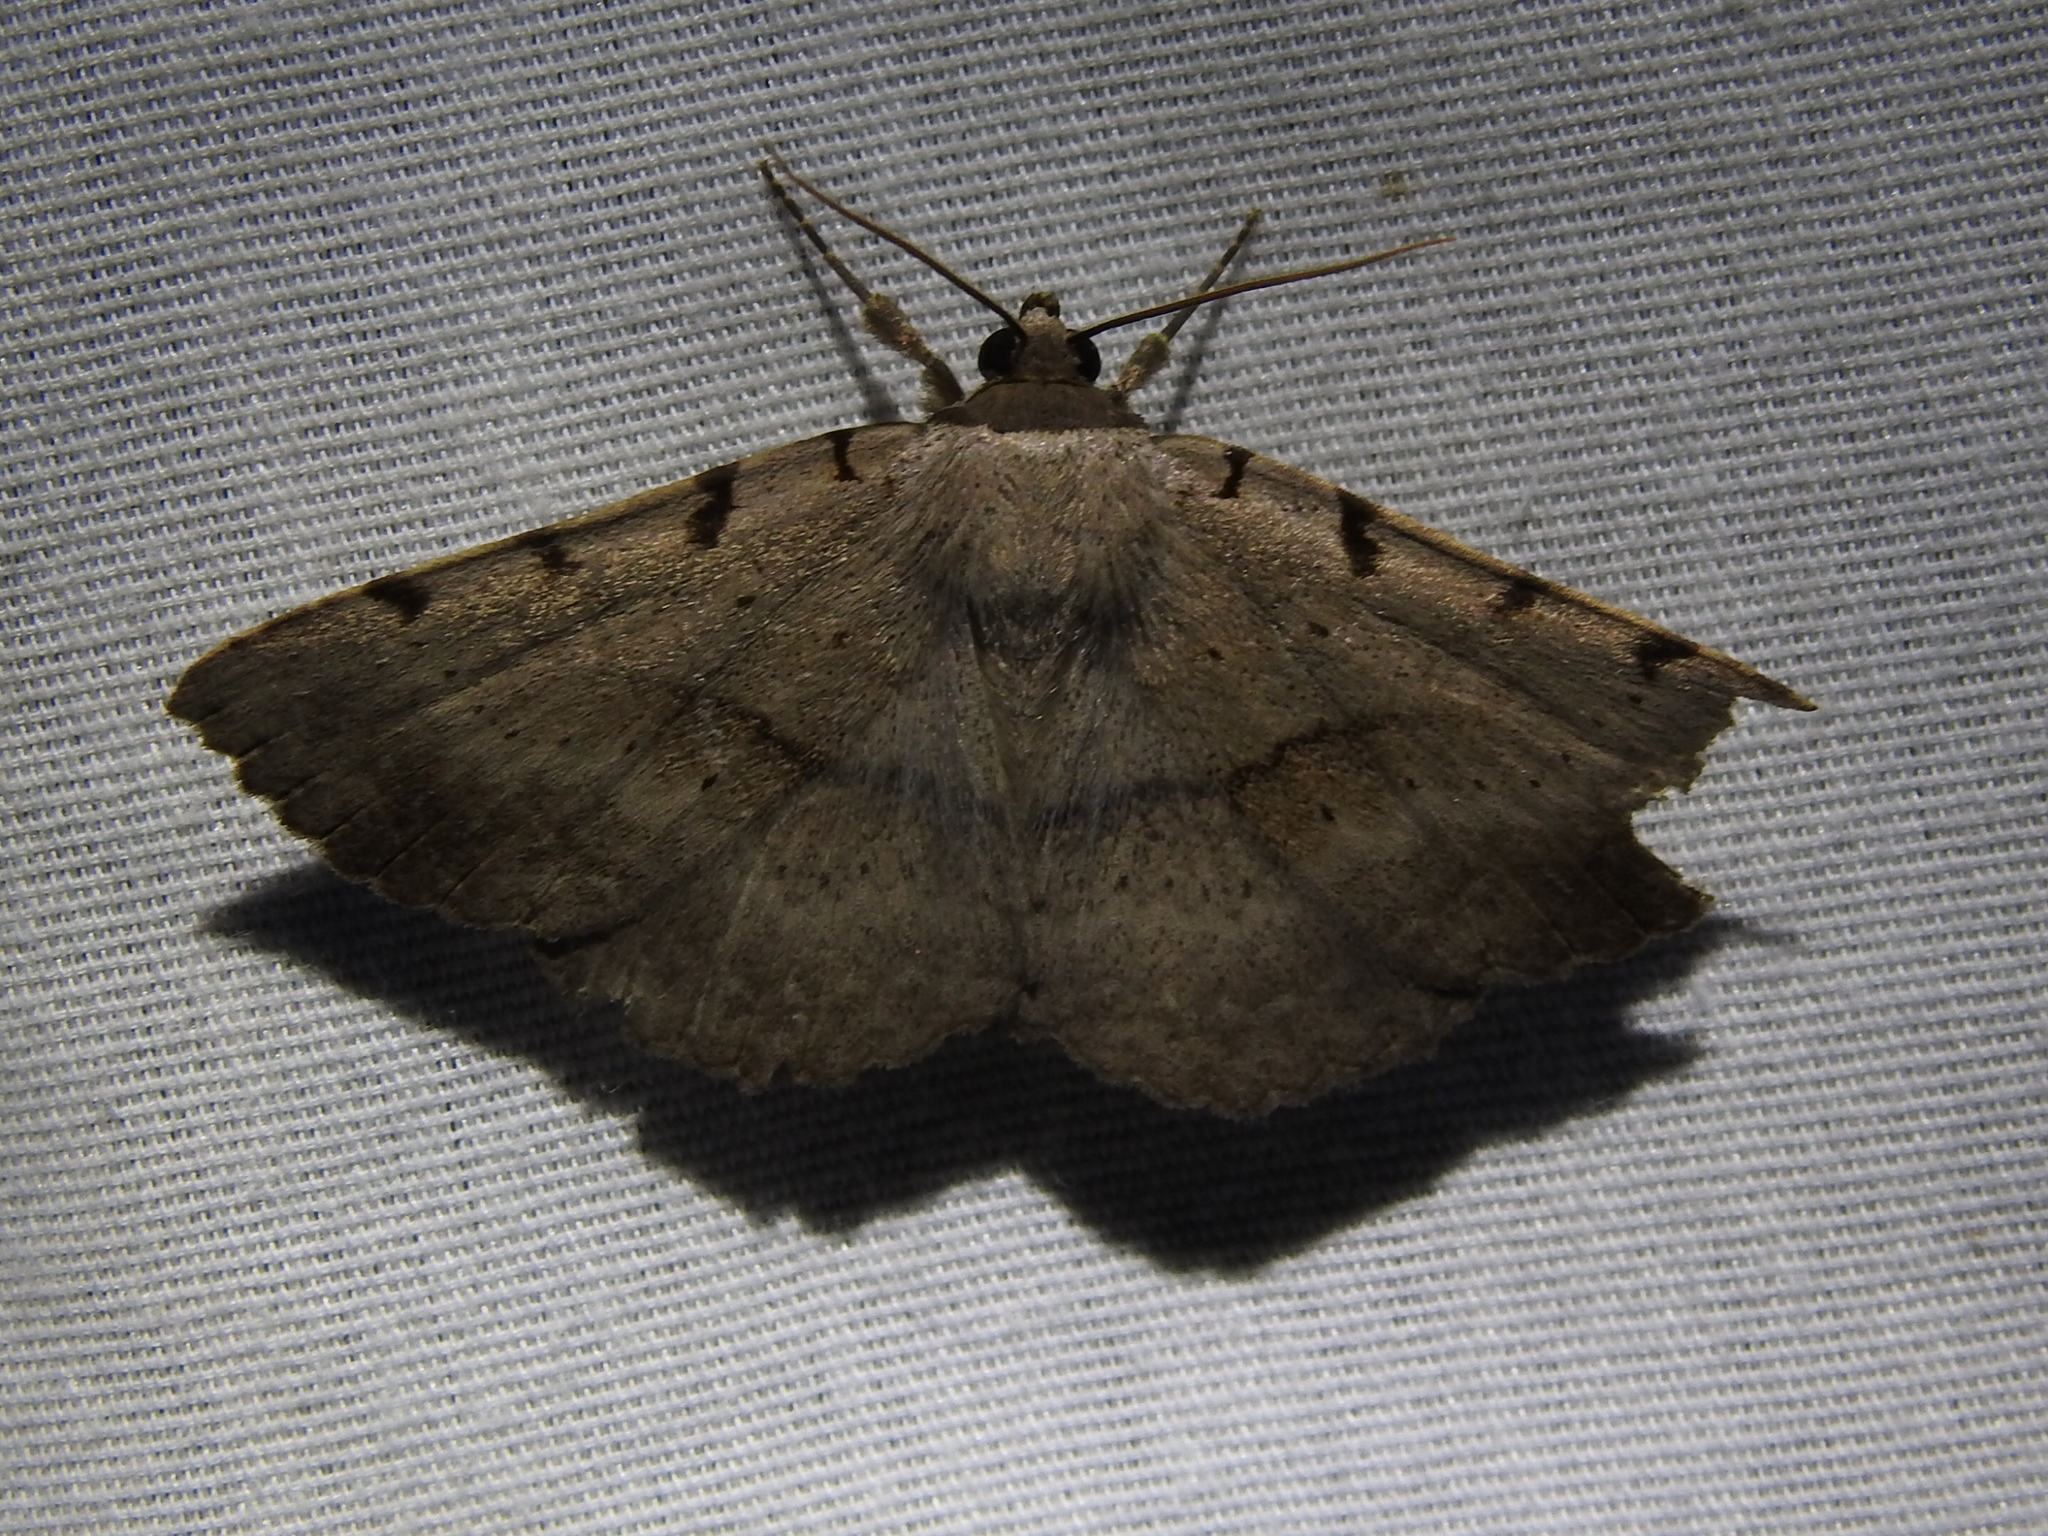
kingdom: Animalia
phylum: Arthropoda
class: Insecta
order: Lepidoptera
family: Erebidae
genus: Spiloloma
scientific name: Spiloloma lunilinea
